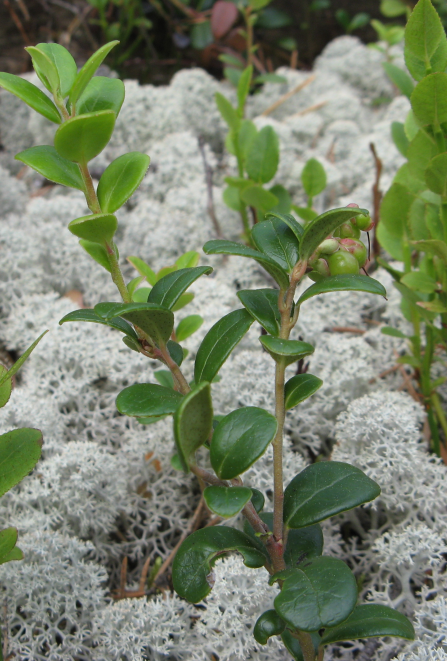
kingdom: Plantae
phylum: Tracheophyta
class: Magnoliopsida
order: Ericales
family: Ericaceae
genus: Vaccinium
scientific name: Vaccinium vitis-idaea
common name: Cowberry
